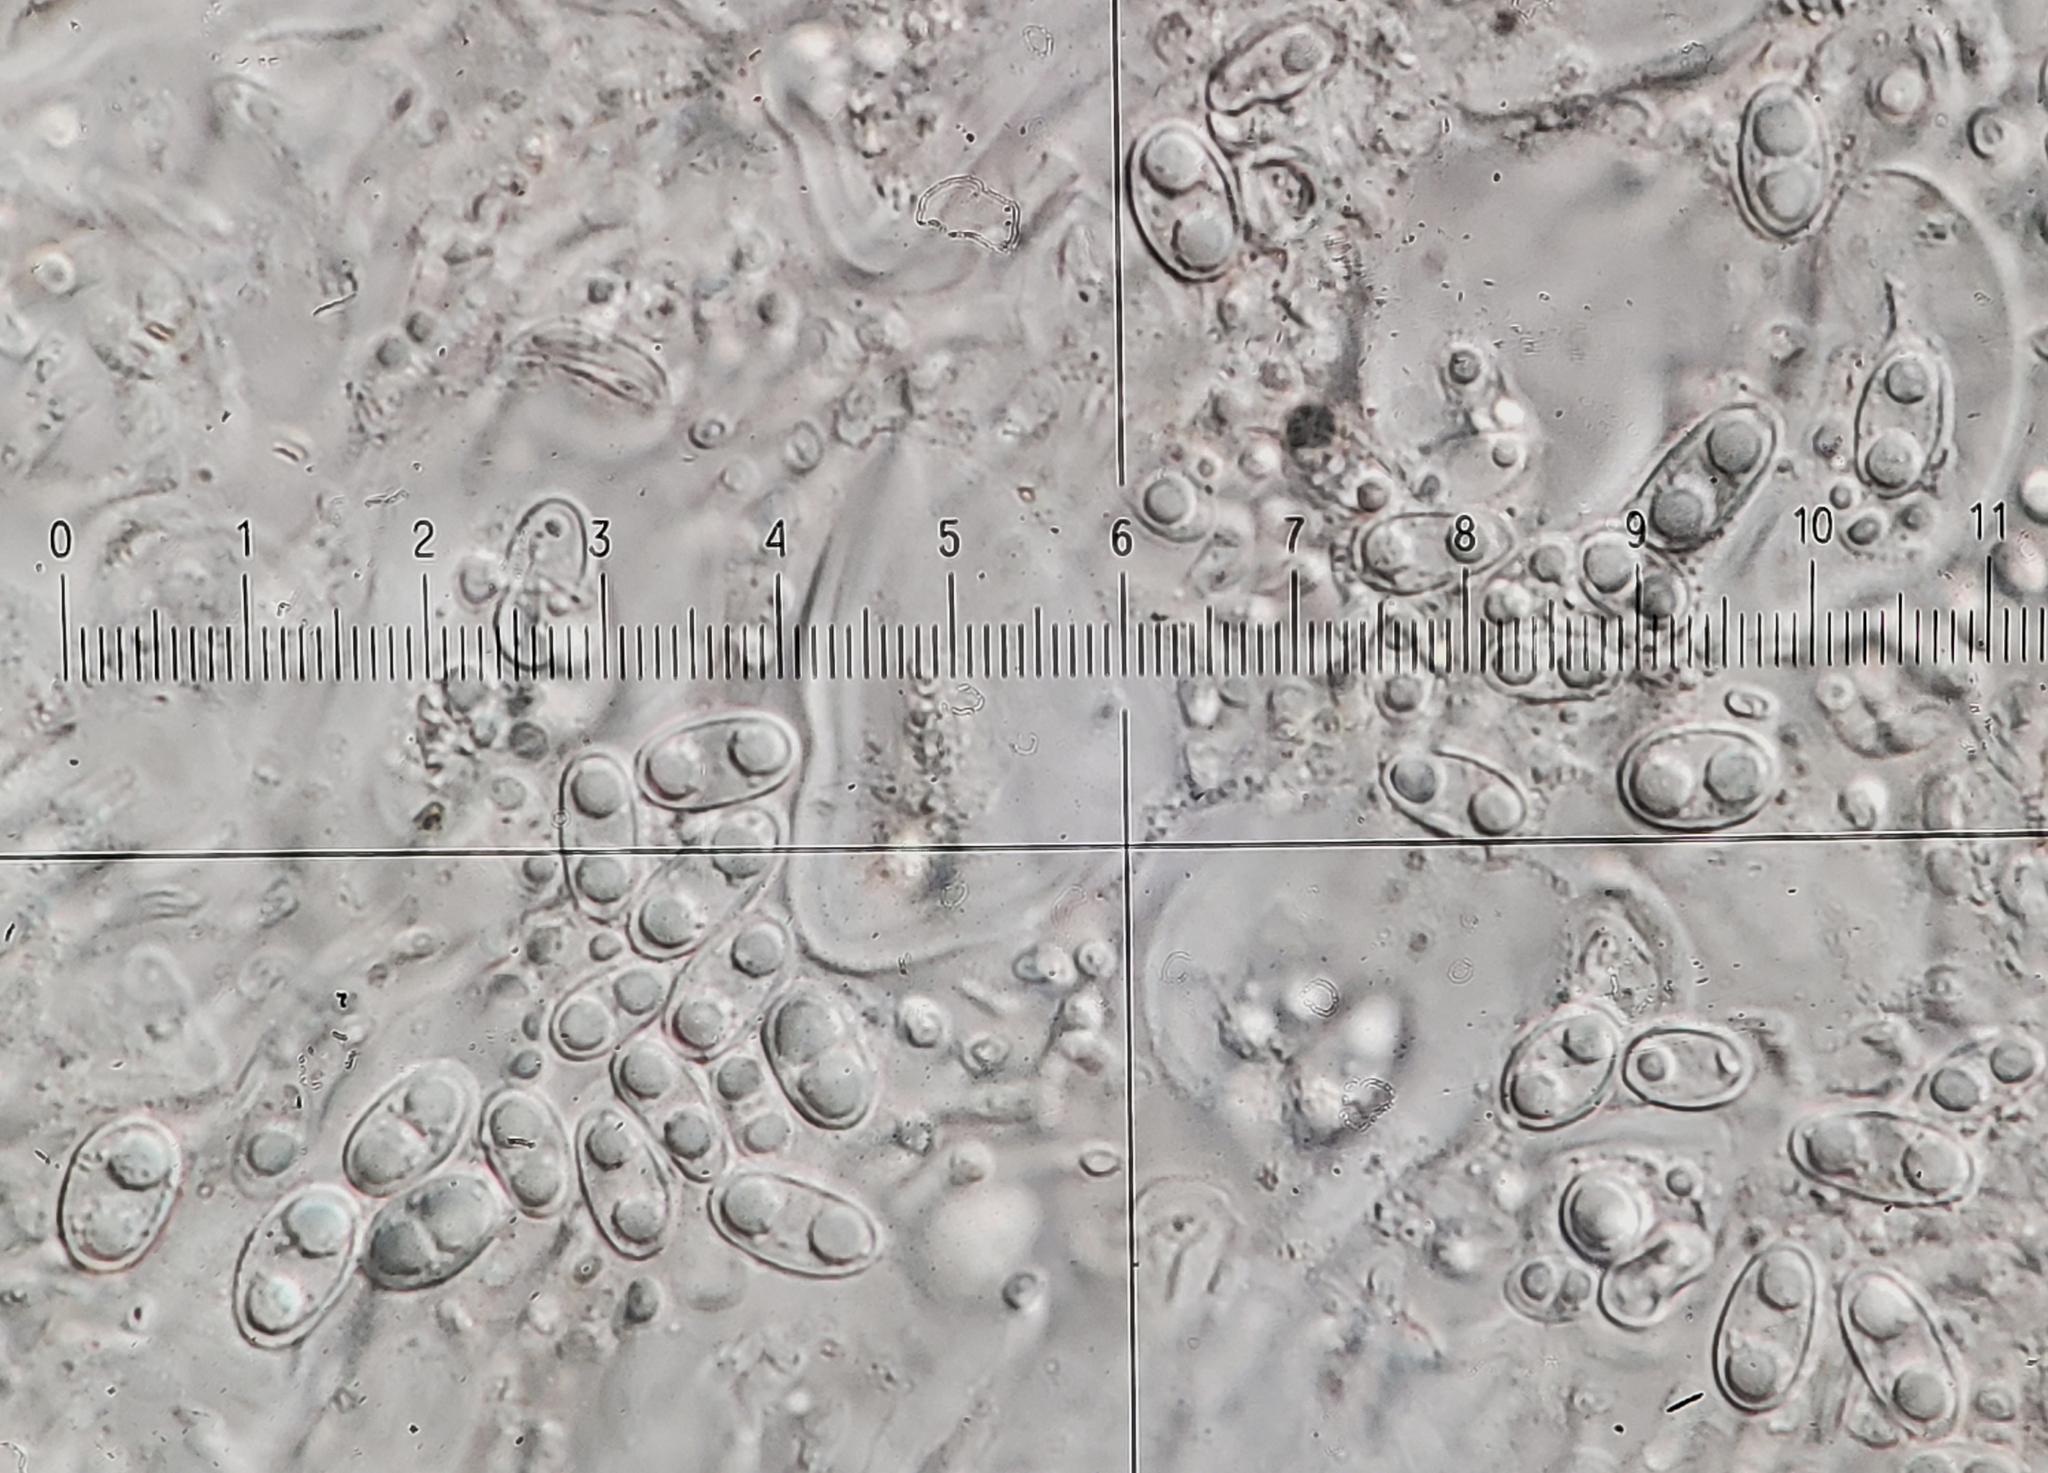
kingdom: Fungi
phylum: Ascomycota
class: Candelariomycetes
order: Candelariales
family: Candelariaceae
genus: Candelaria
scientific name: Candelaria fibrosa
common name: Fringed candleflame lichen
